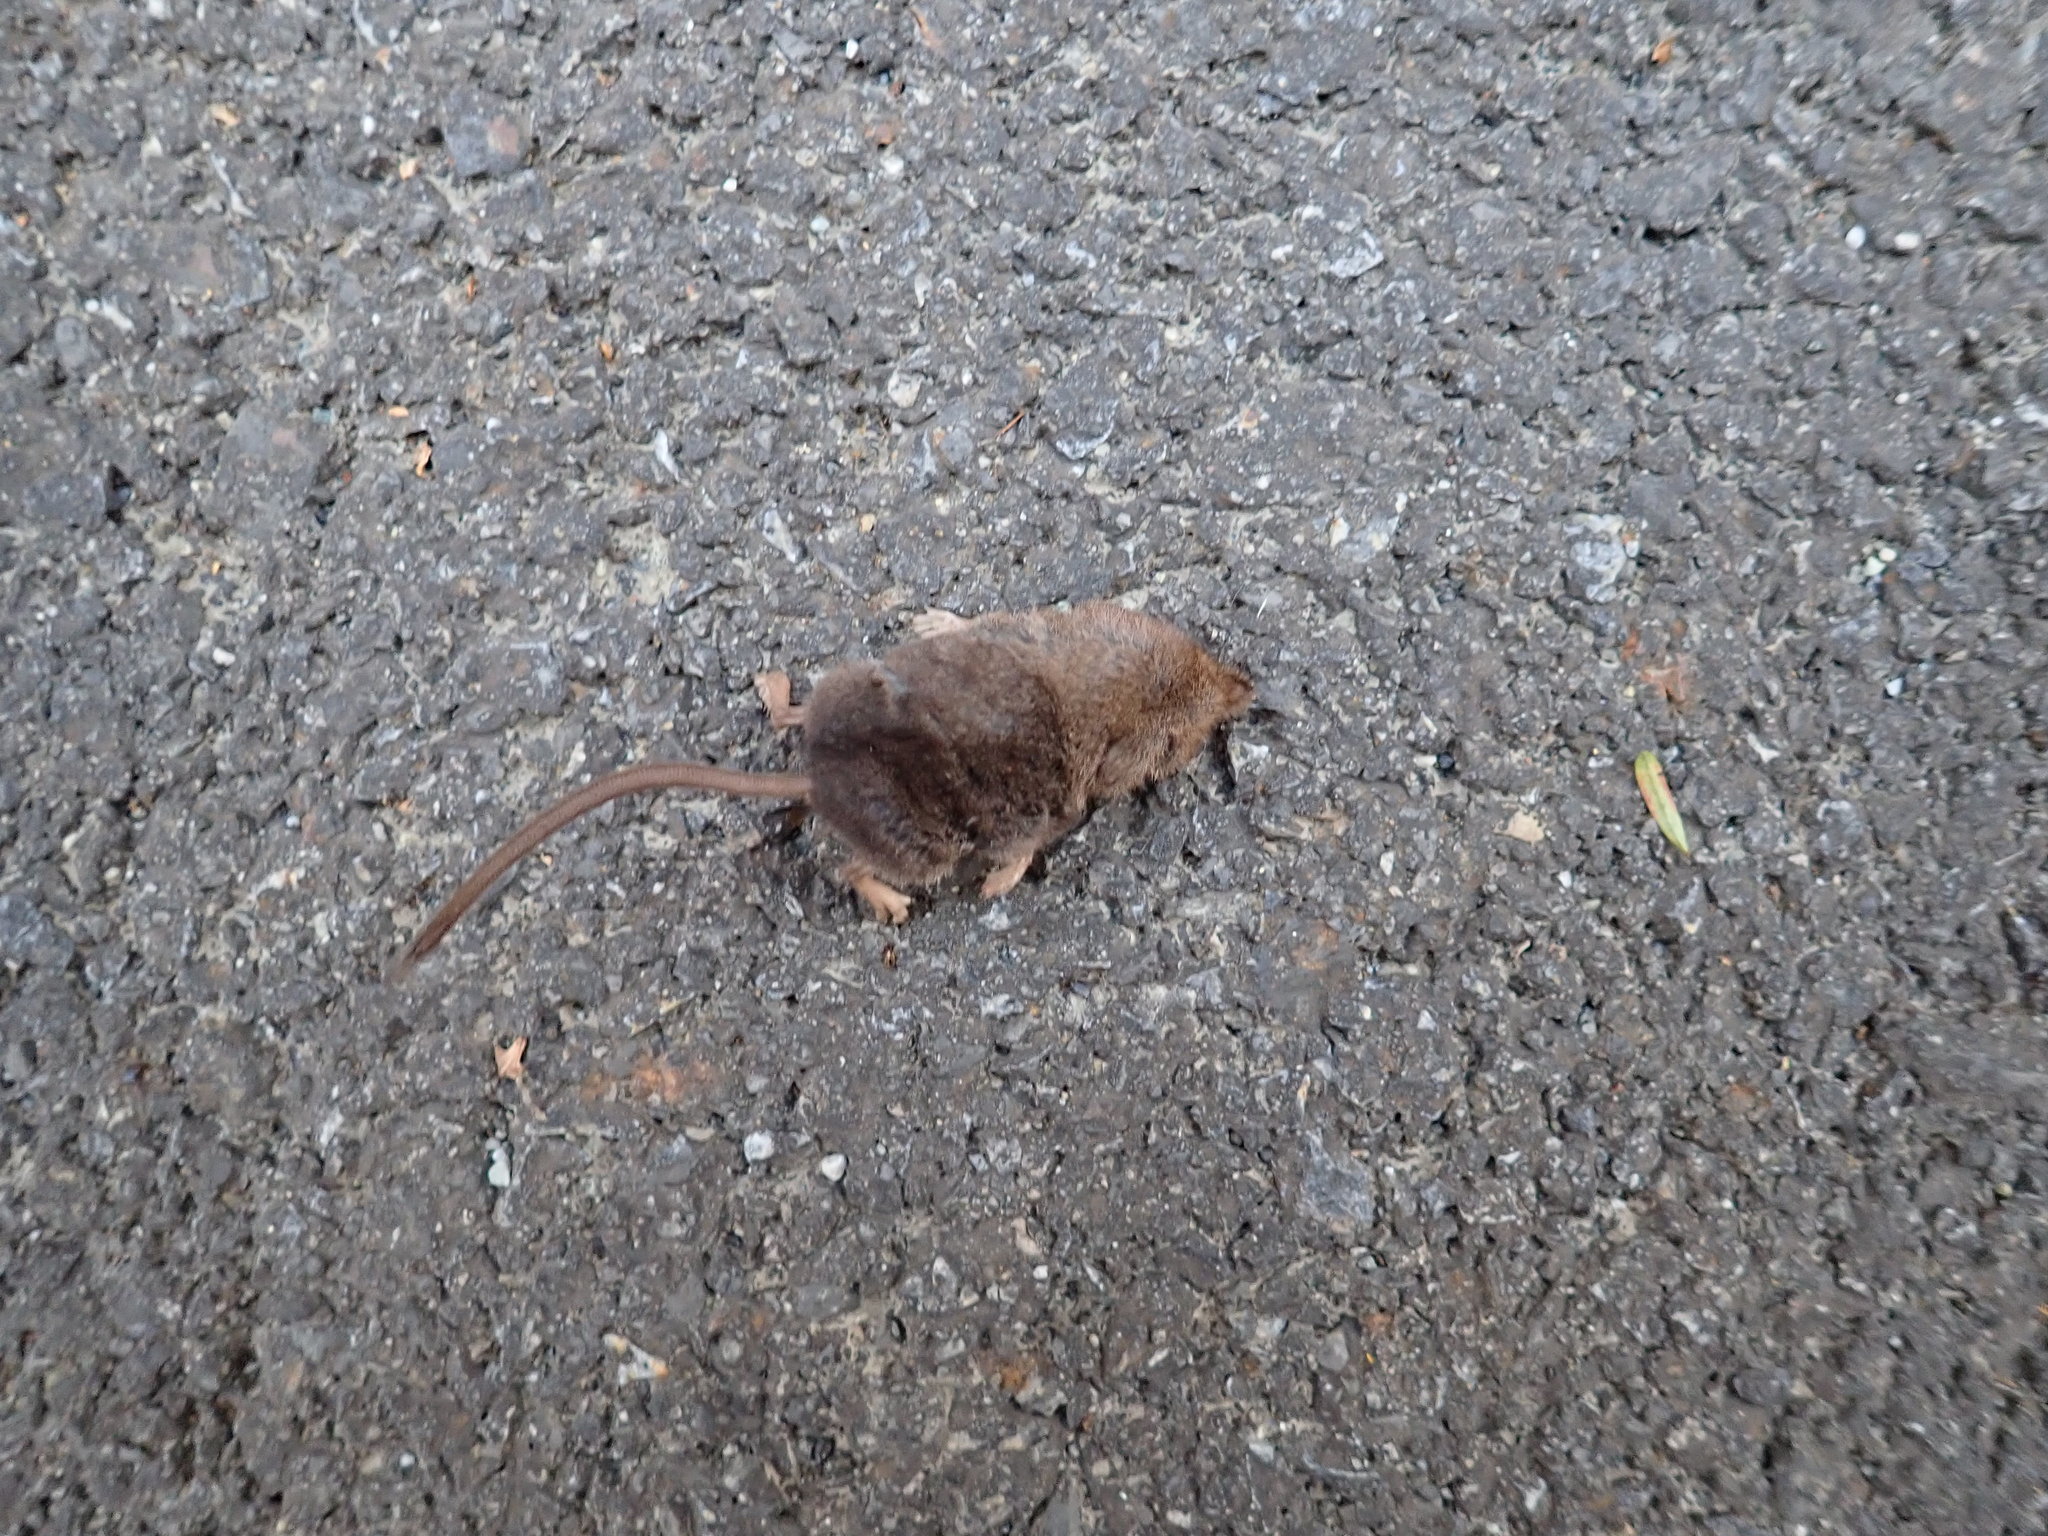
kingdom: Animalia
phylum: Chordata
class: Mammalia
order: Soricomorpha
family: Soricidae
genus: Sorex
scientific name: Sorex cinereus
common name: Cinereus shrew
